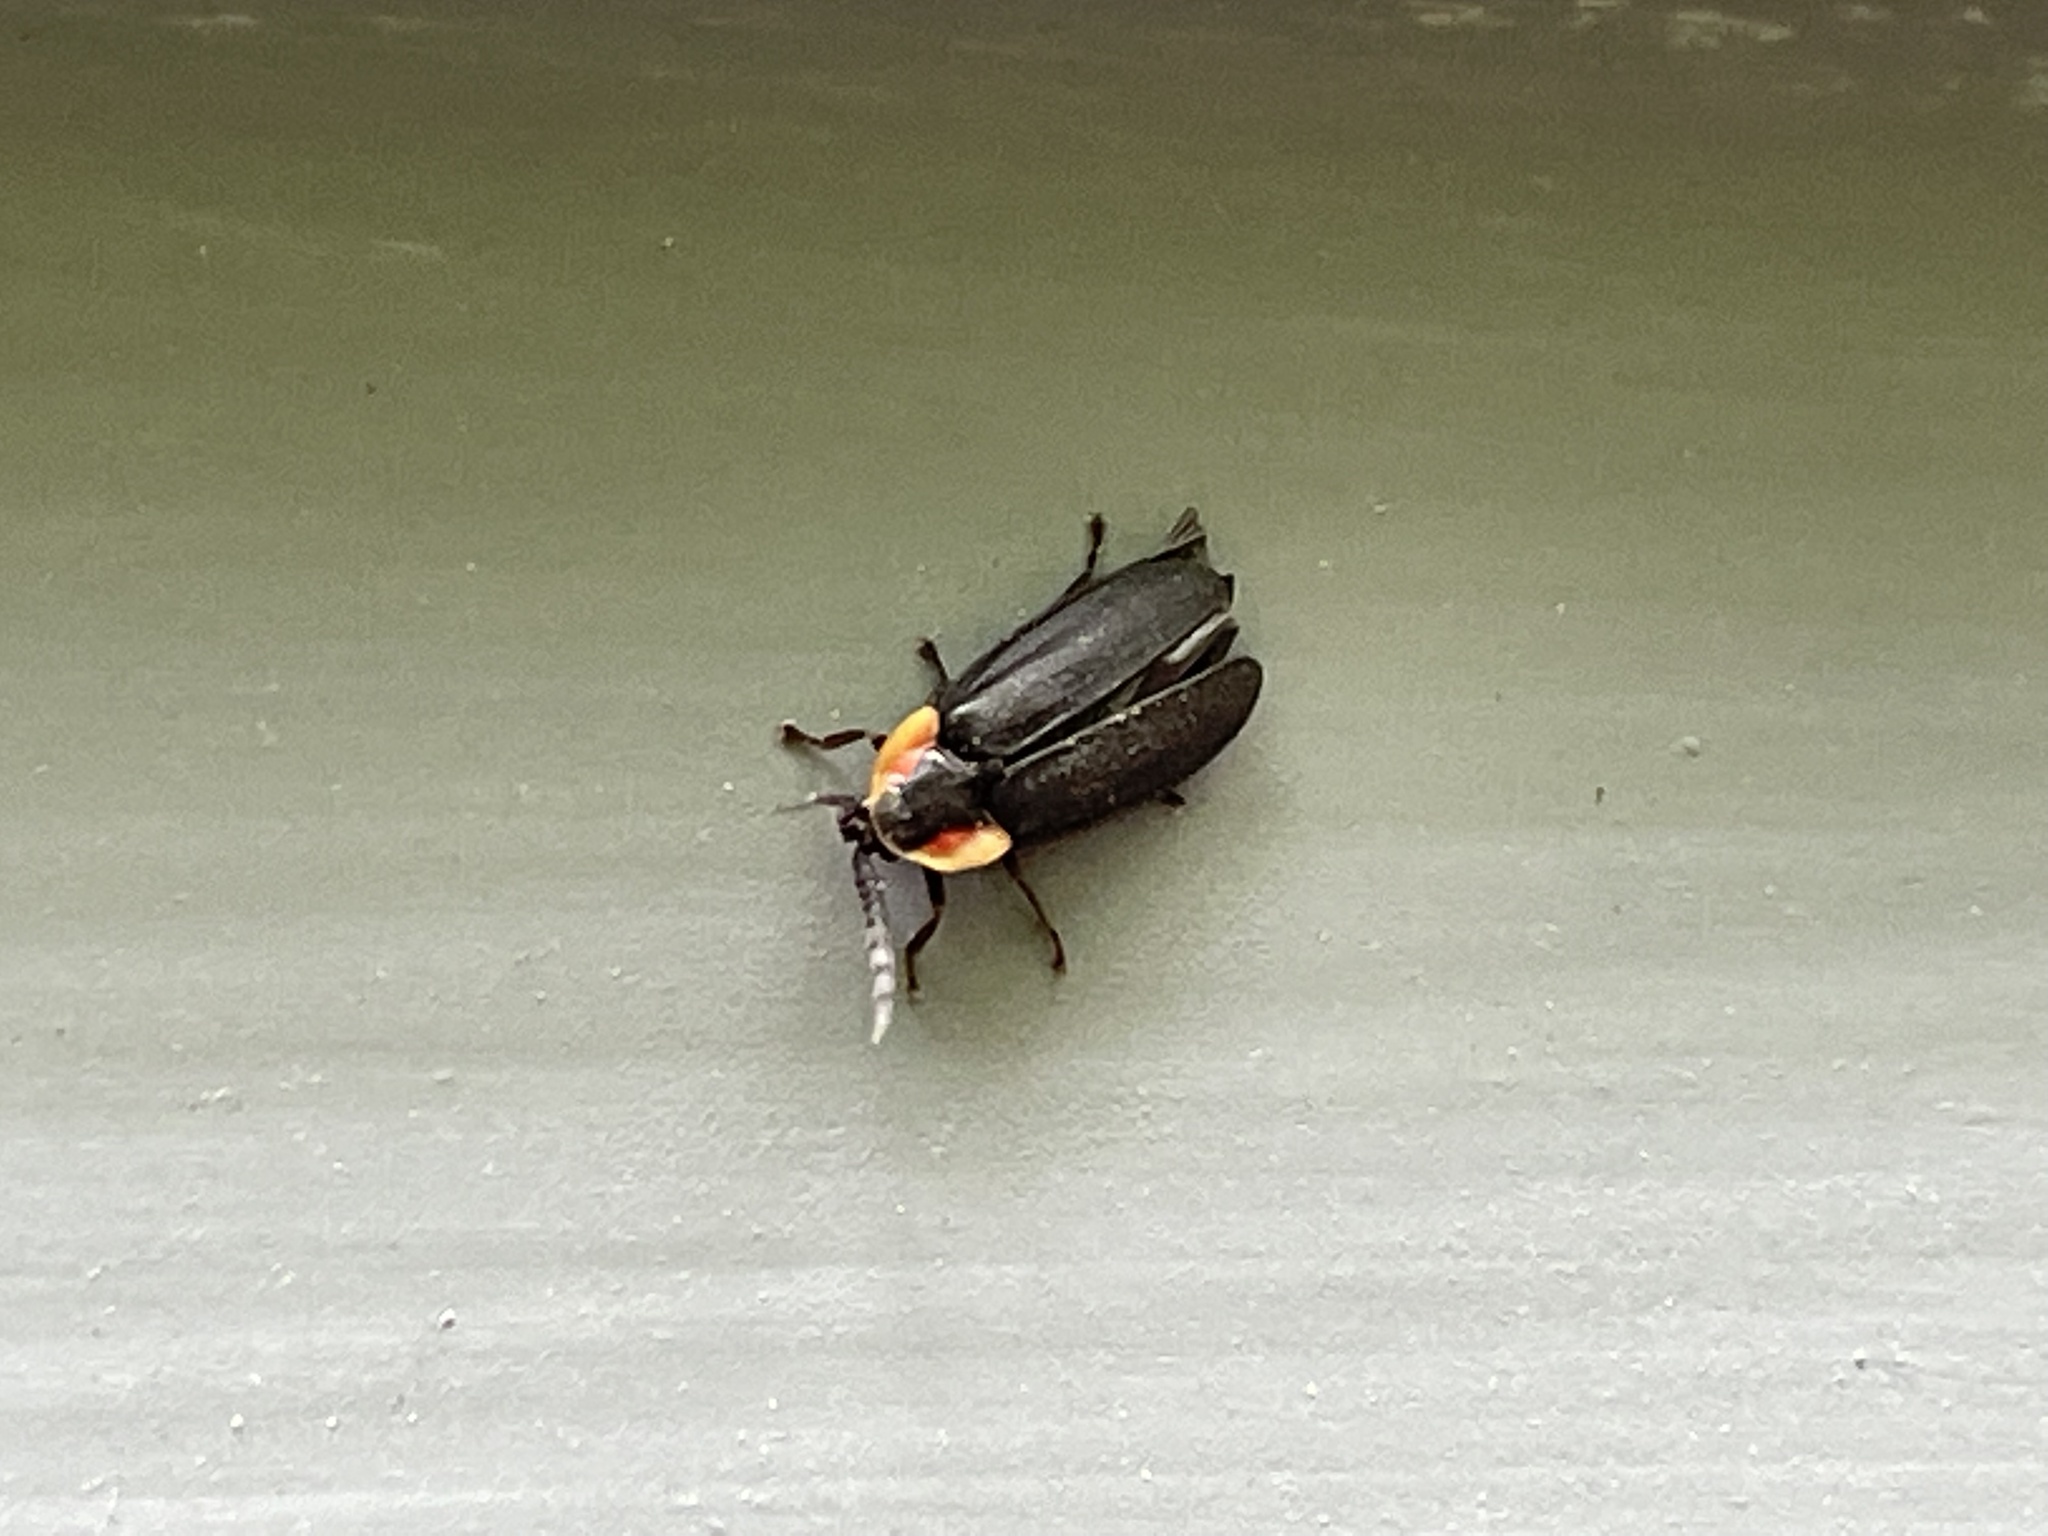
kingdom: Animalia
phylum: Arthropoda
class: Insecta
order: Coleoptera
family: Lampyridae
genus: Lucidota
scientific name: Lucidota atra
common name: Black firefly
